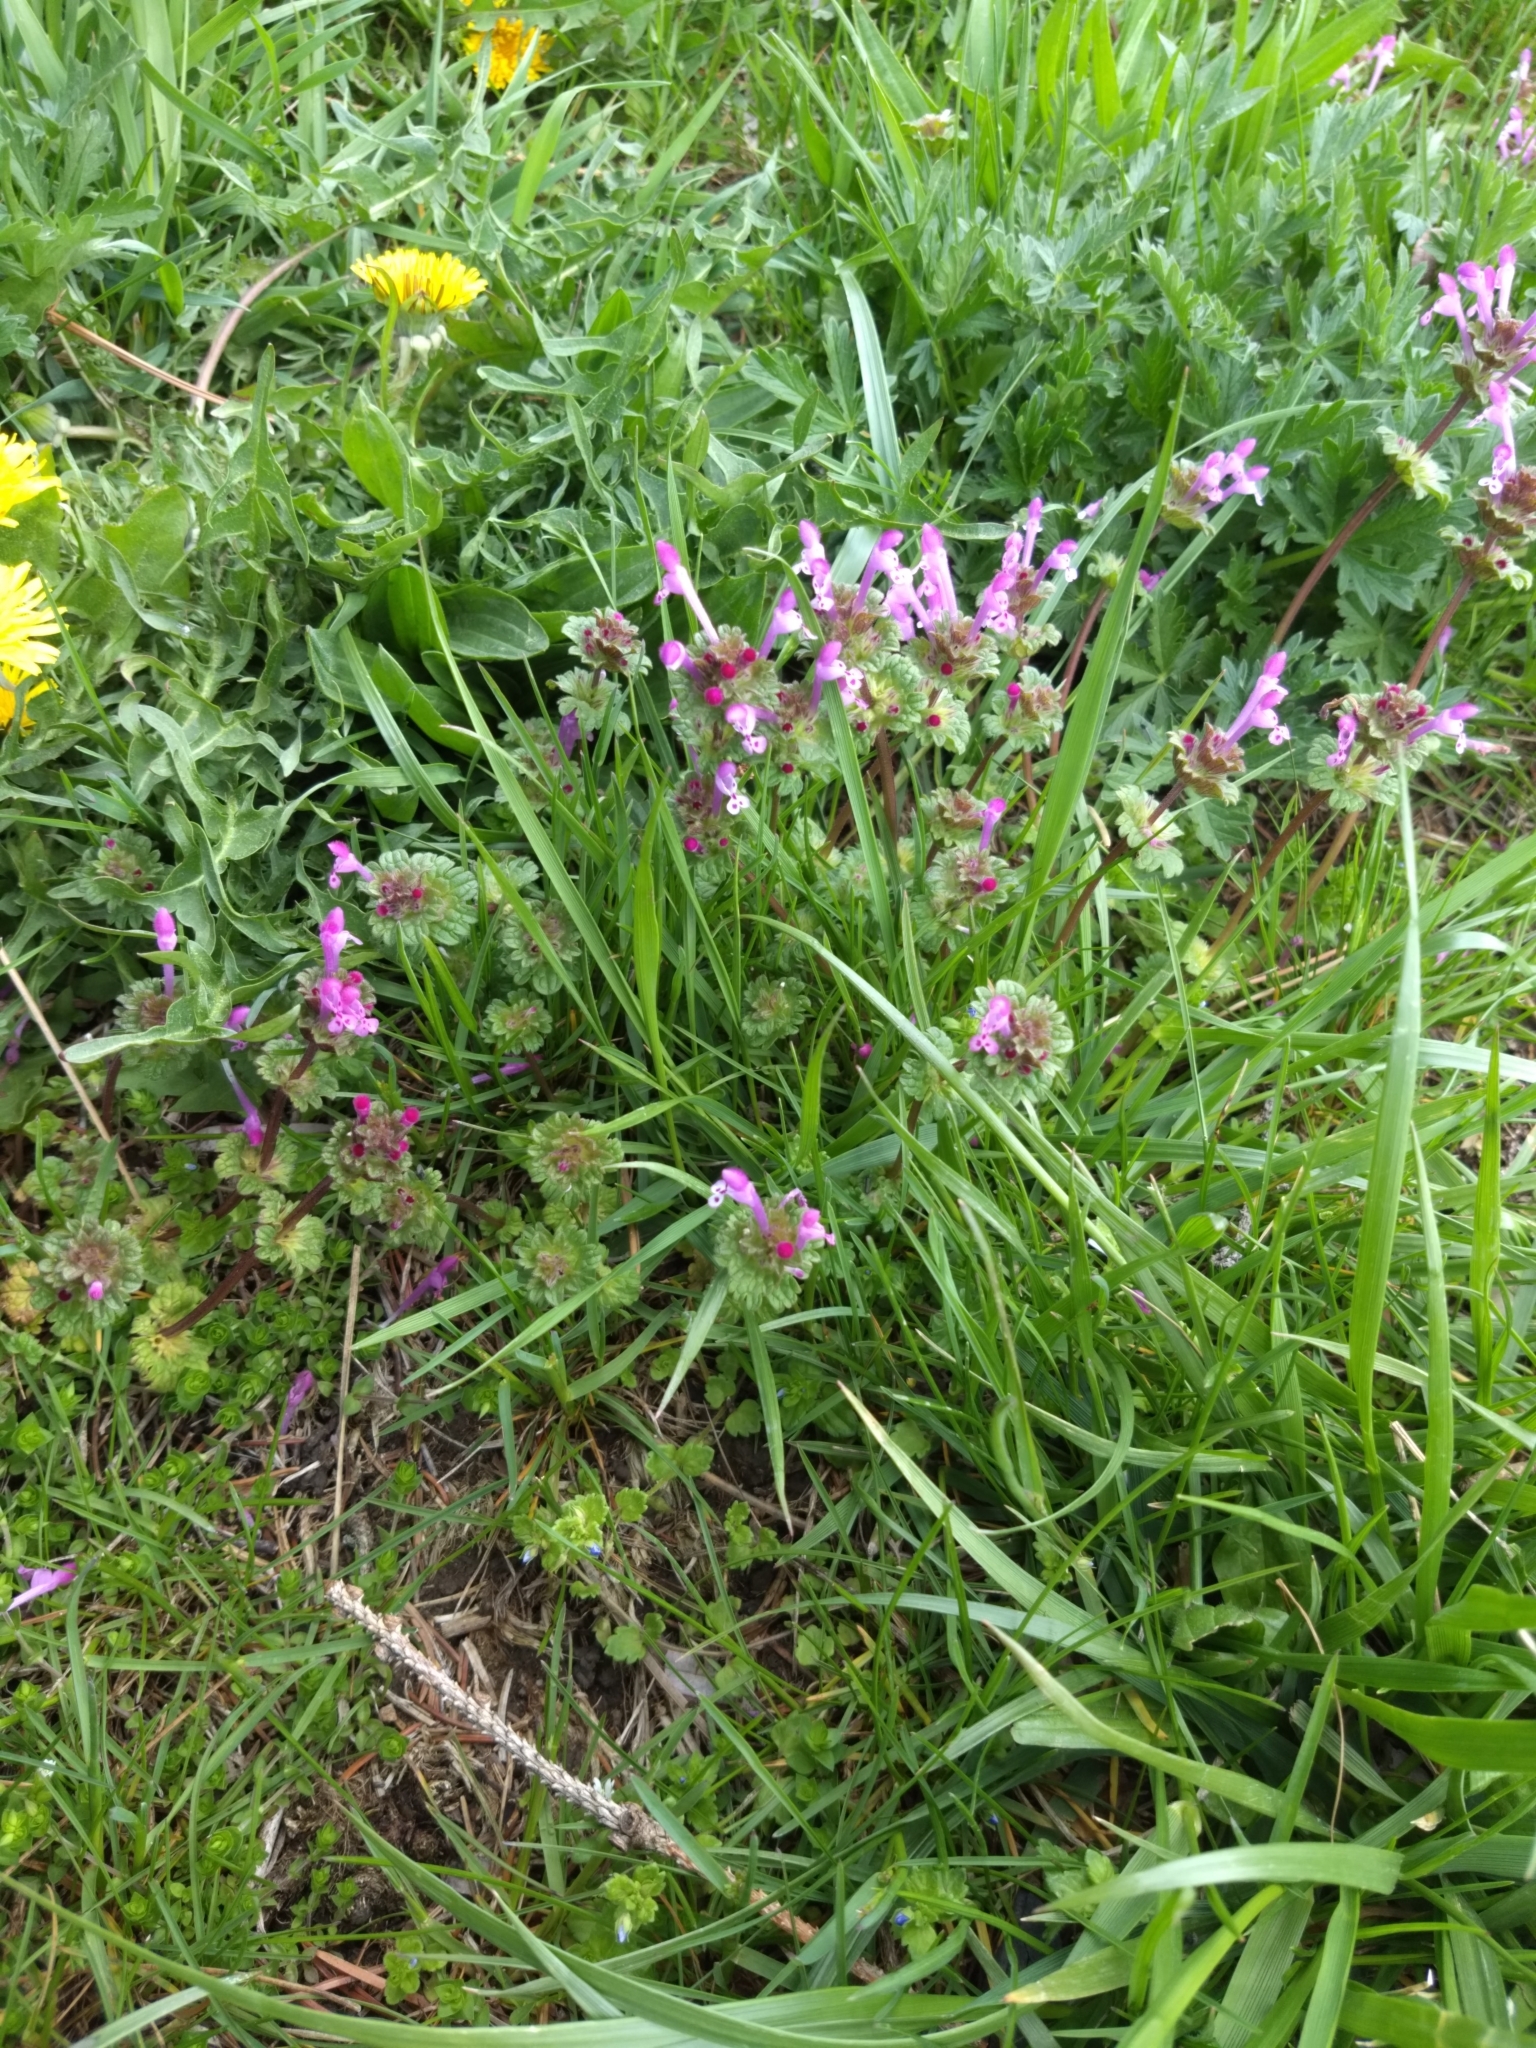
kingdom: Plantae
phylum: Tracheophyta
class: Magnoliopsida
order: Lamiales
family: Lamiaceae
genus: Lamium
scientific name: Lamium amplexicaule
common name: Henbit dead-nettle
